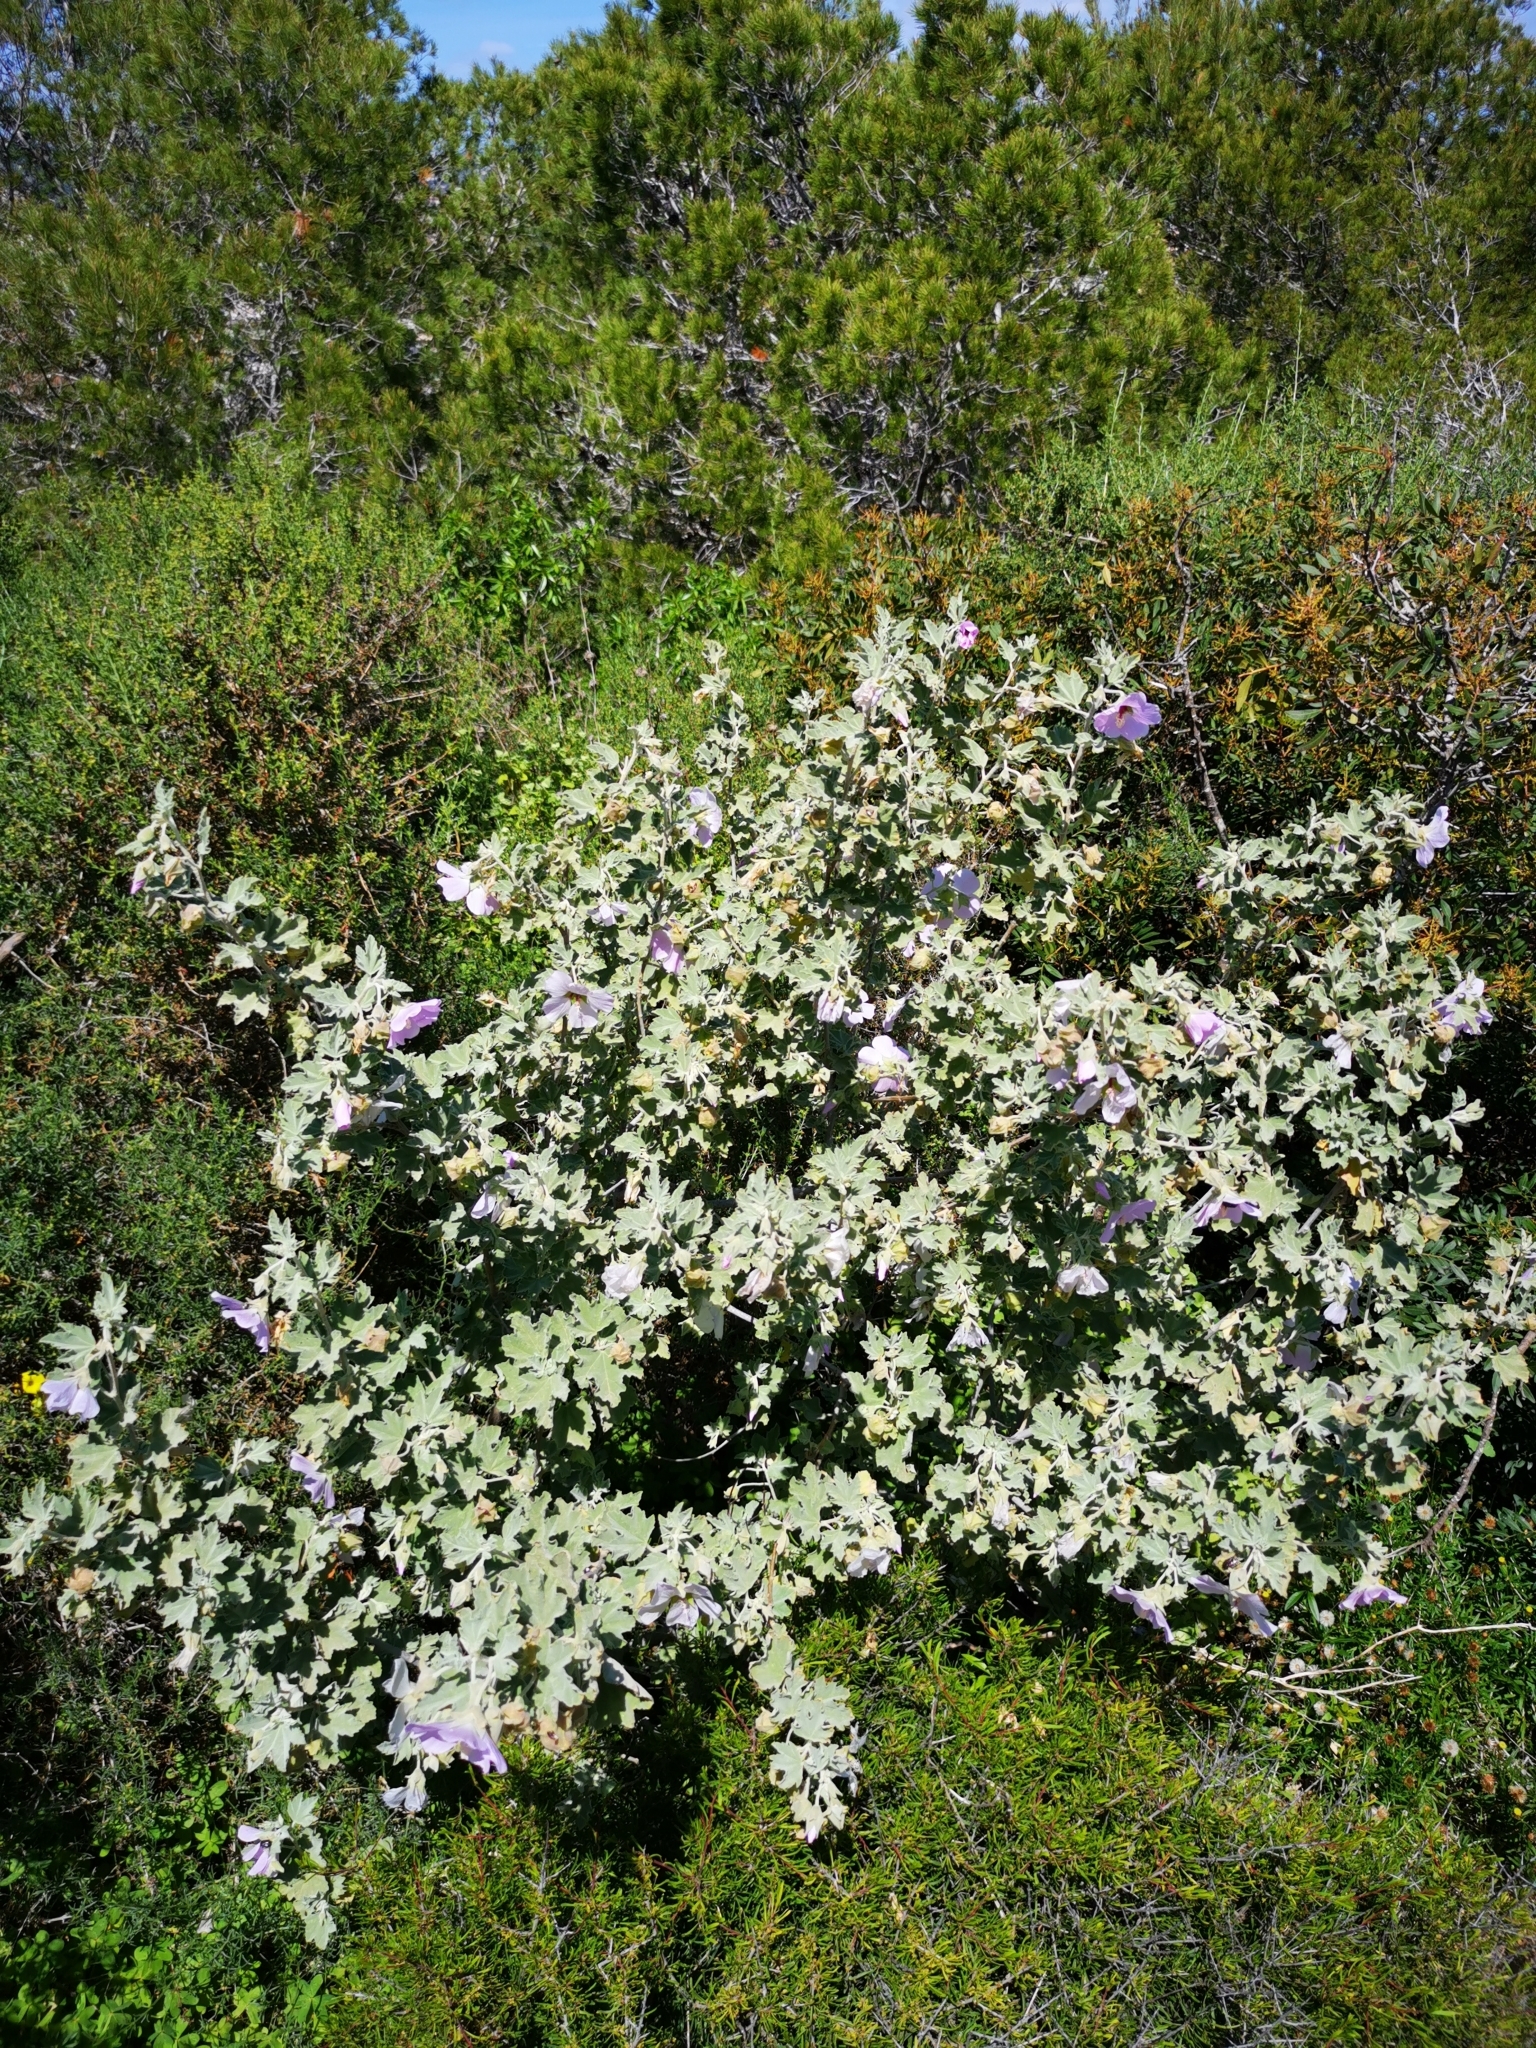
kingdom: Plantae
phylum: Tracheophyta
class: Magnoliopsida
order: Malvales
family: Malvaceae
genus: Malva
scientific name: Malva subovata
